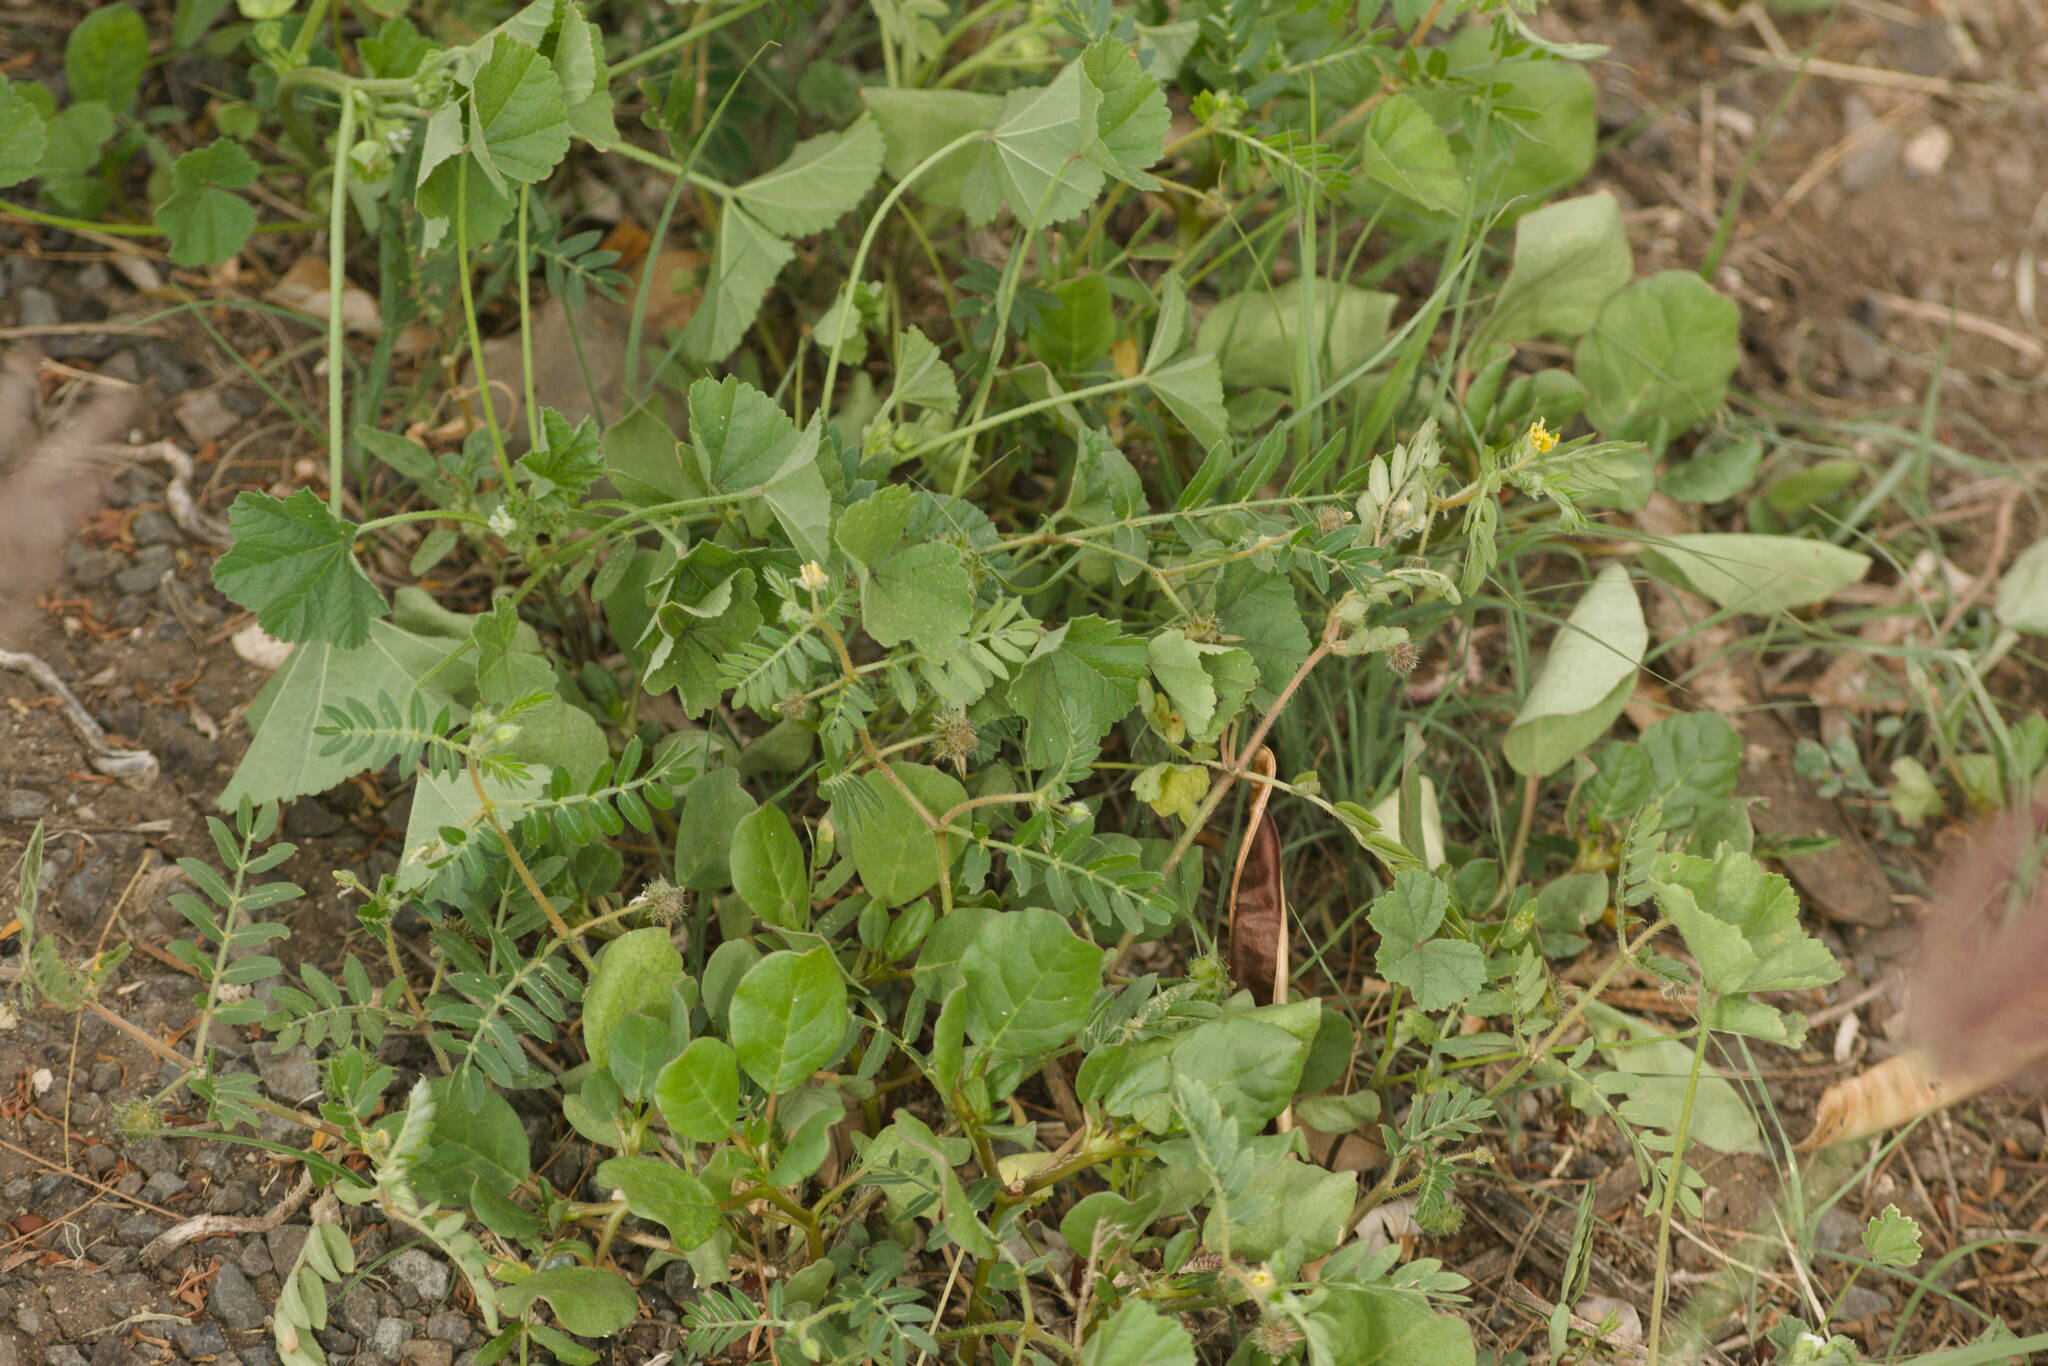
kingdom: Plantae
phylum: Tracheophyta
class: Magnoliopsida
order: Zygophyllales
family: Zygophyllaceae
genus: Tribulus
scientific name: Tribulus terrestris
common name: Puncturevine
